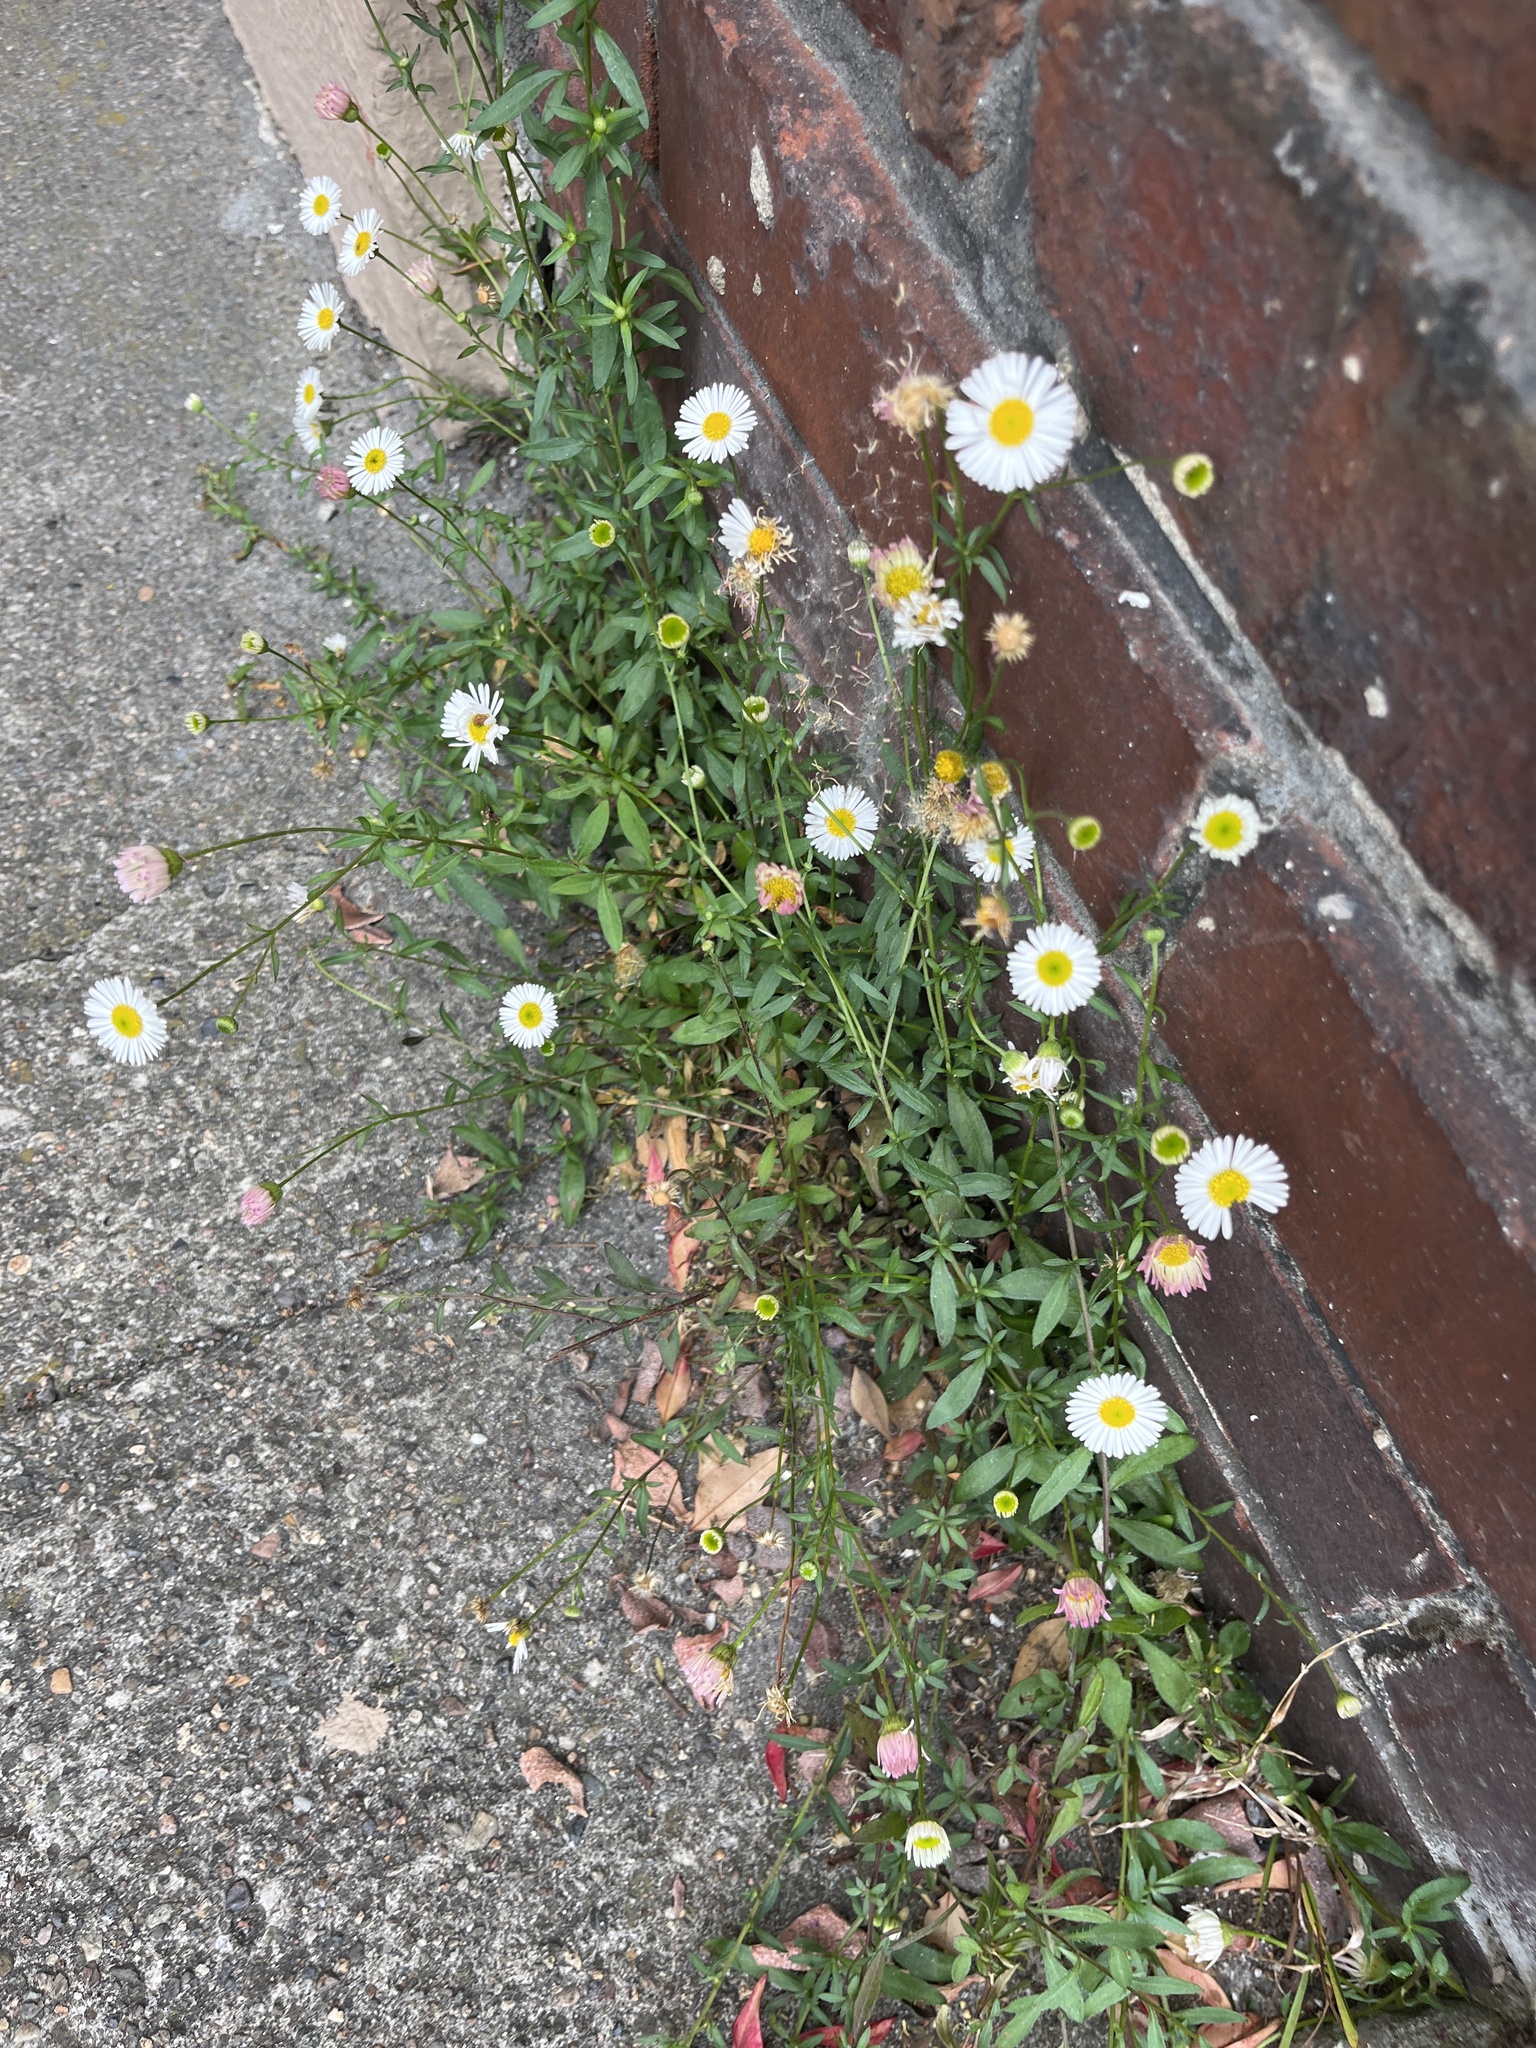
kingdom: Plantae
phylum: Tracheophyta
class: Magnoliopsida
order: Asterales
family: Asteraceae
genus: Erigeron
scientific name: Erigeron karvinskianus
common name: Mexican fleabane
